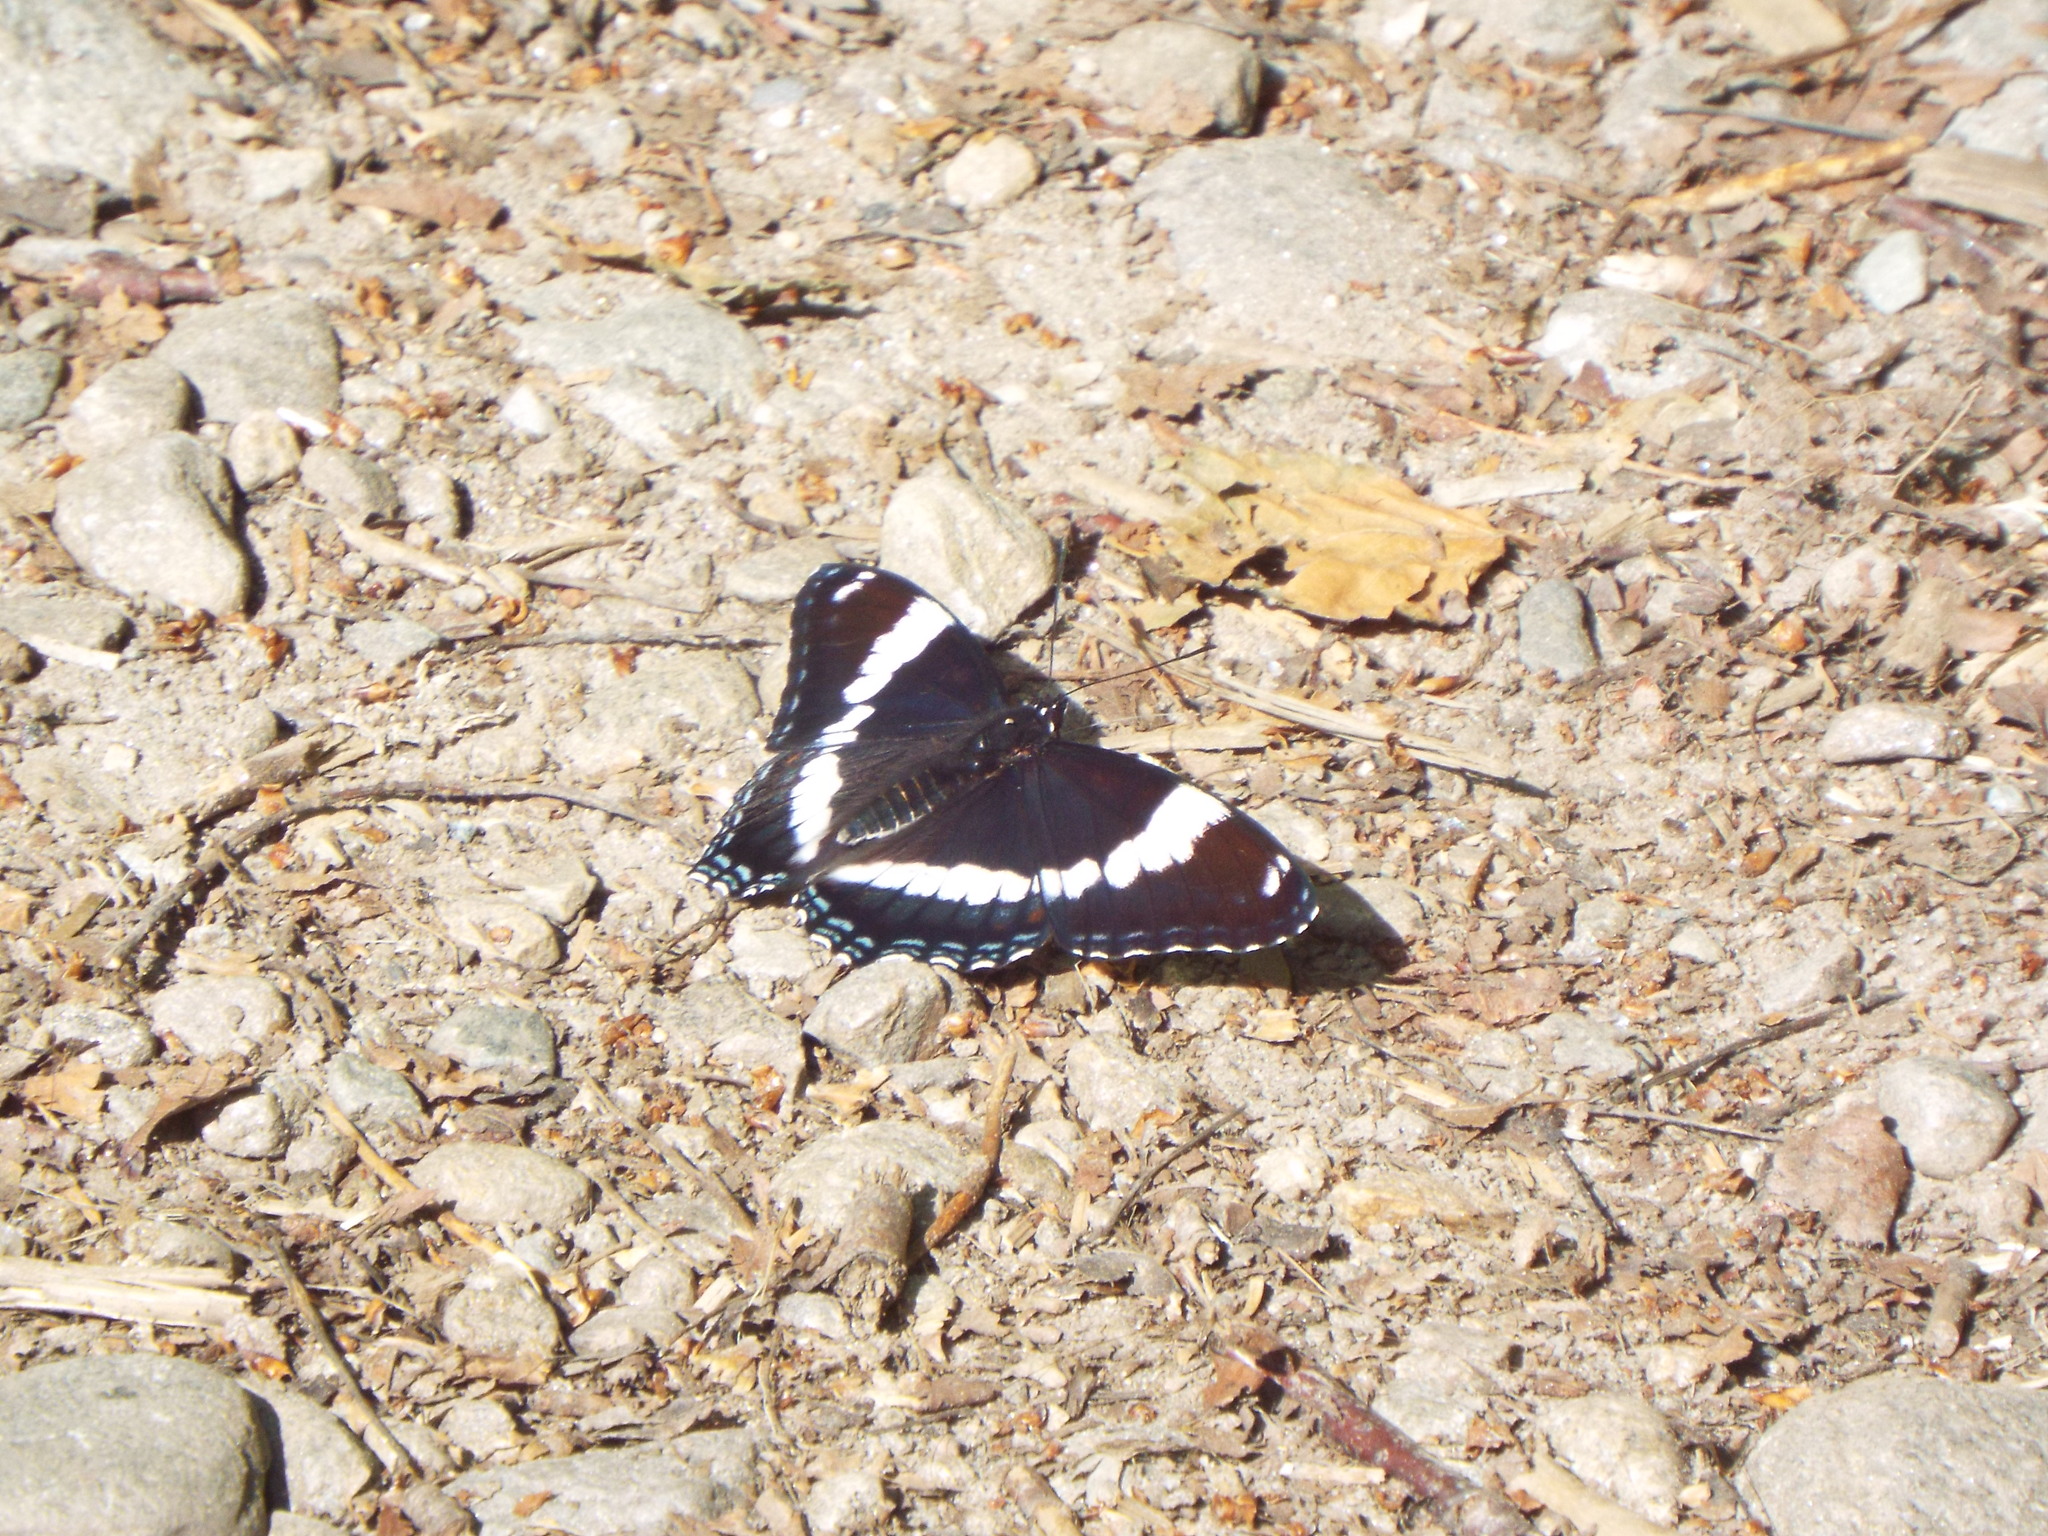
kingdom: Animalia
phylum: Arthropoda
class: Insecta
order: Lepidoptera
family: Nymphalidae
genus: Limenitis
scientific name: Limenitis arthemis
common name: Red-spotted admiral
